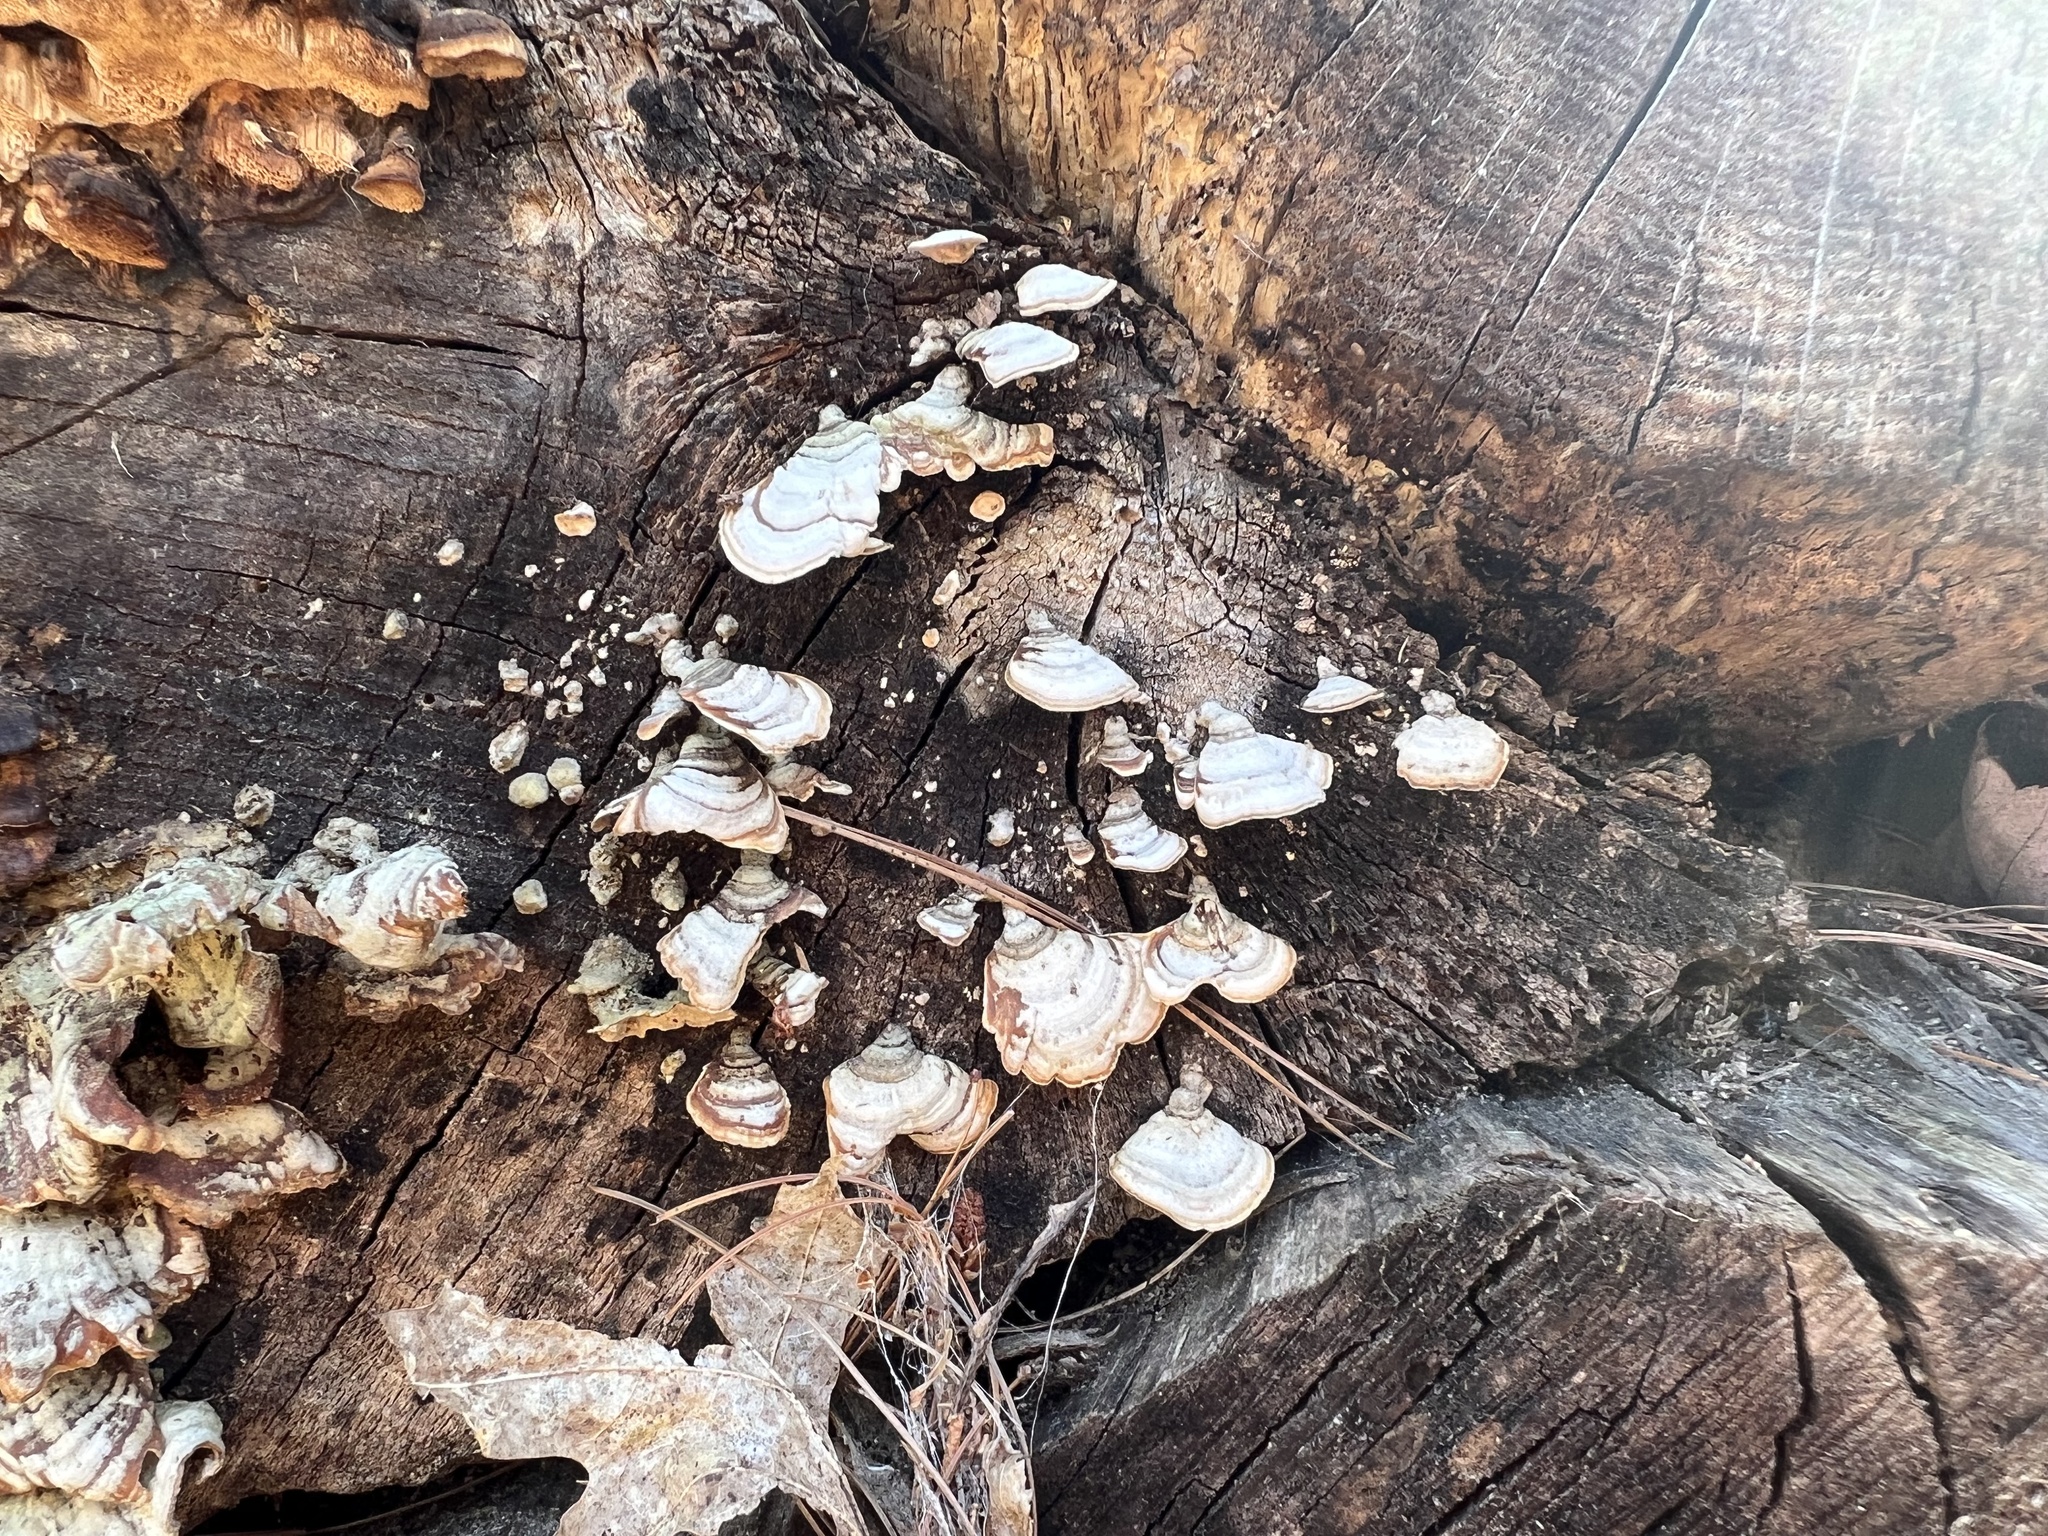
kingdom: Fungi
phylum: Basidiomycota
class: Agaricomycetes
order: Russulales
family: Stereaceae
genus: Stereum
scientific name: Stereum lobatum
